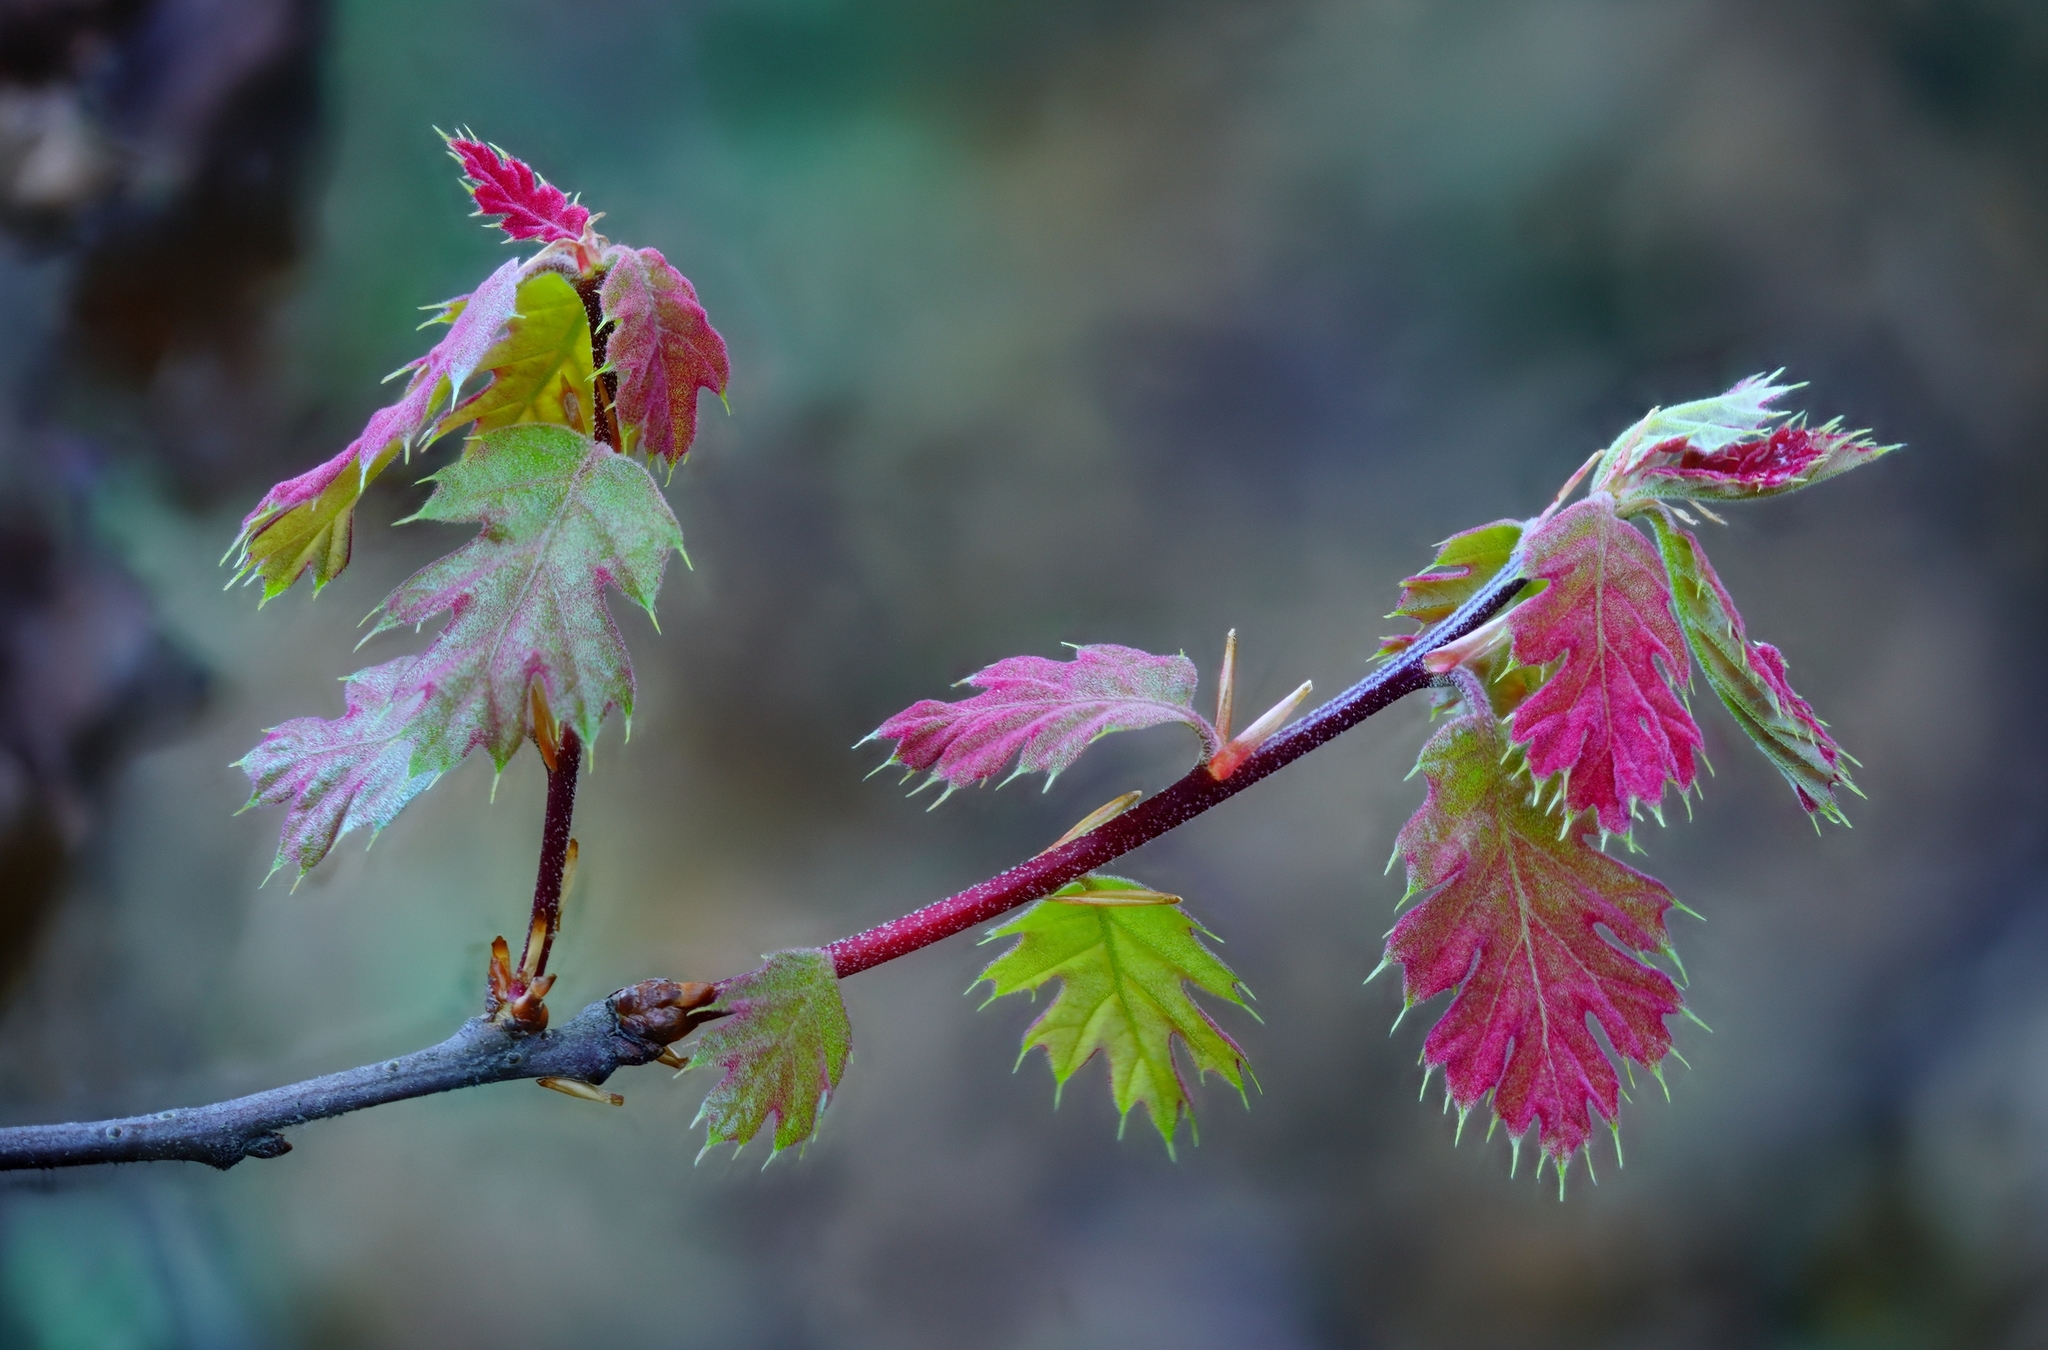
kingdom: Plantae
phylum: Tracheophyta
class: Magnoliopsida
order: Fagales
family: Fagaceae
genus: Quercus
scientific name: Quercus kelloggii
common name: California black oak
